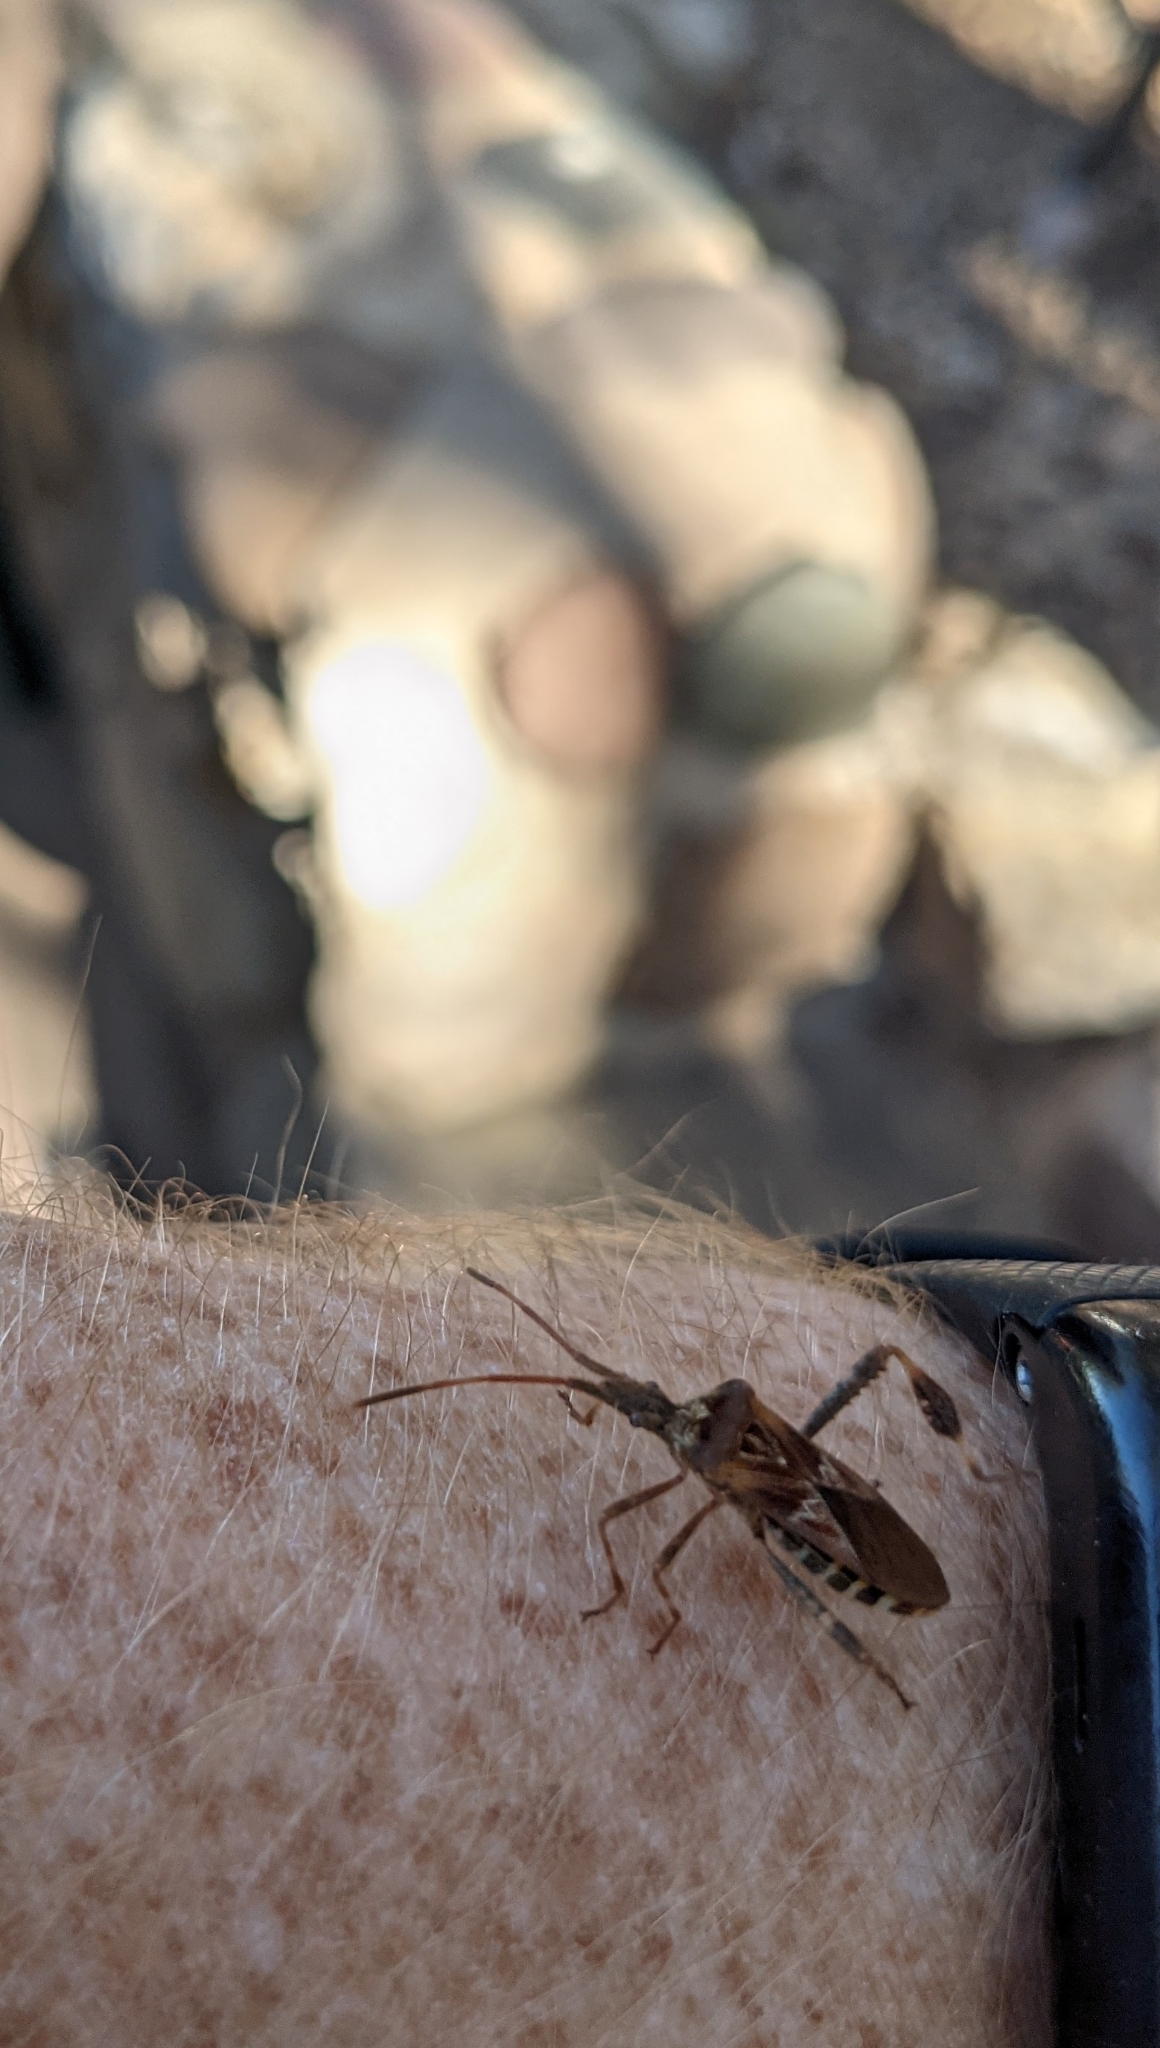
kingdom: Animalia
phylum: Arthropoda
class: Insecta
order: Hemiptera
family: Coreidae
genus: Leptoglossus
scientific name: Leptoglossus occidentalis
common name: Western conifer-seed bug
